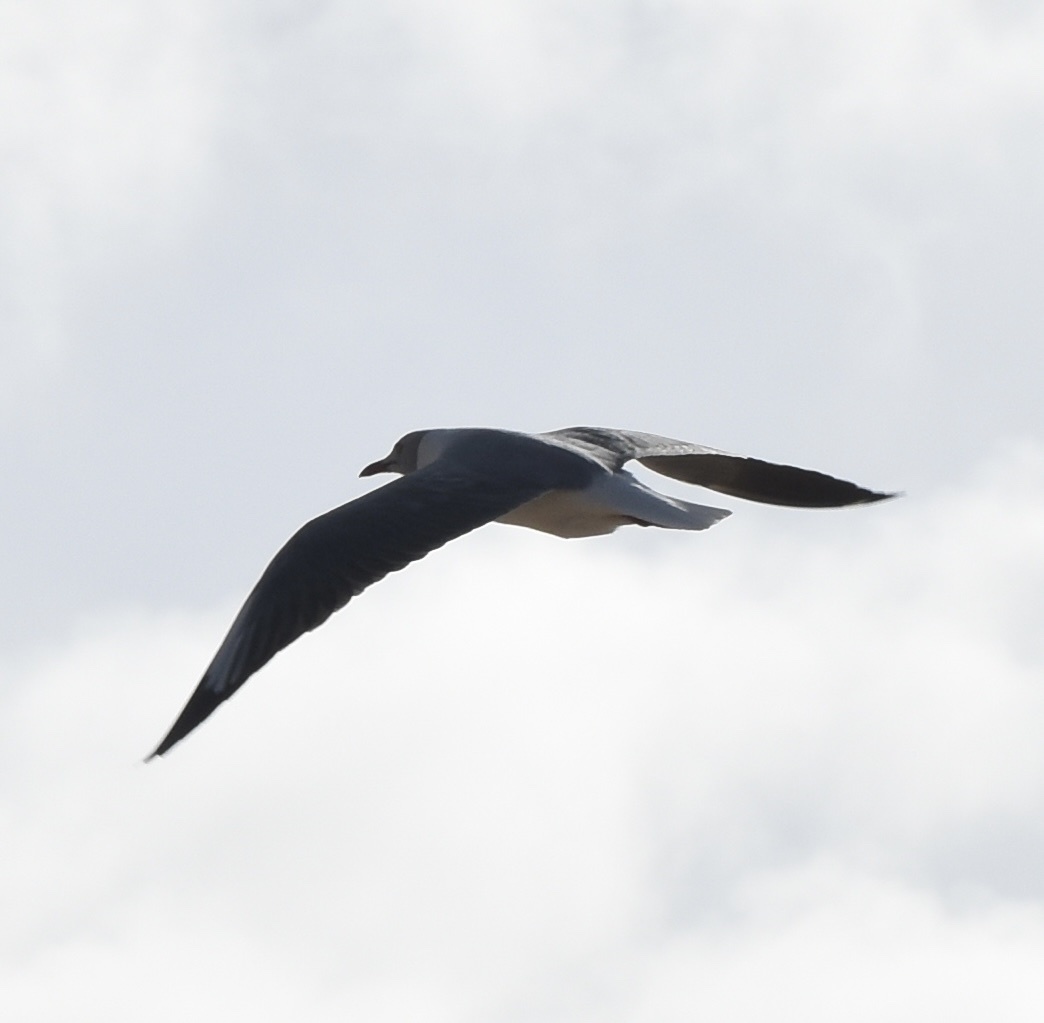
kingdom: Animalia
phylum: Chordata
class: Aves
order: Charadriiformes
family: Laridae
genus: Chroicocephalus
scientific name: Chroicocephalus cirrocephalus
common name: Grey-headed gull
